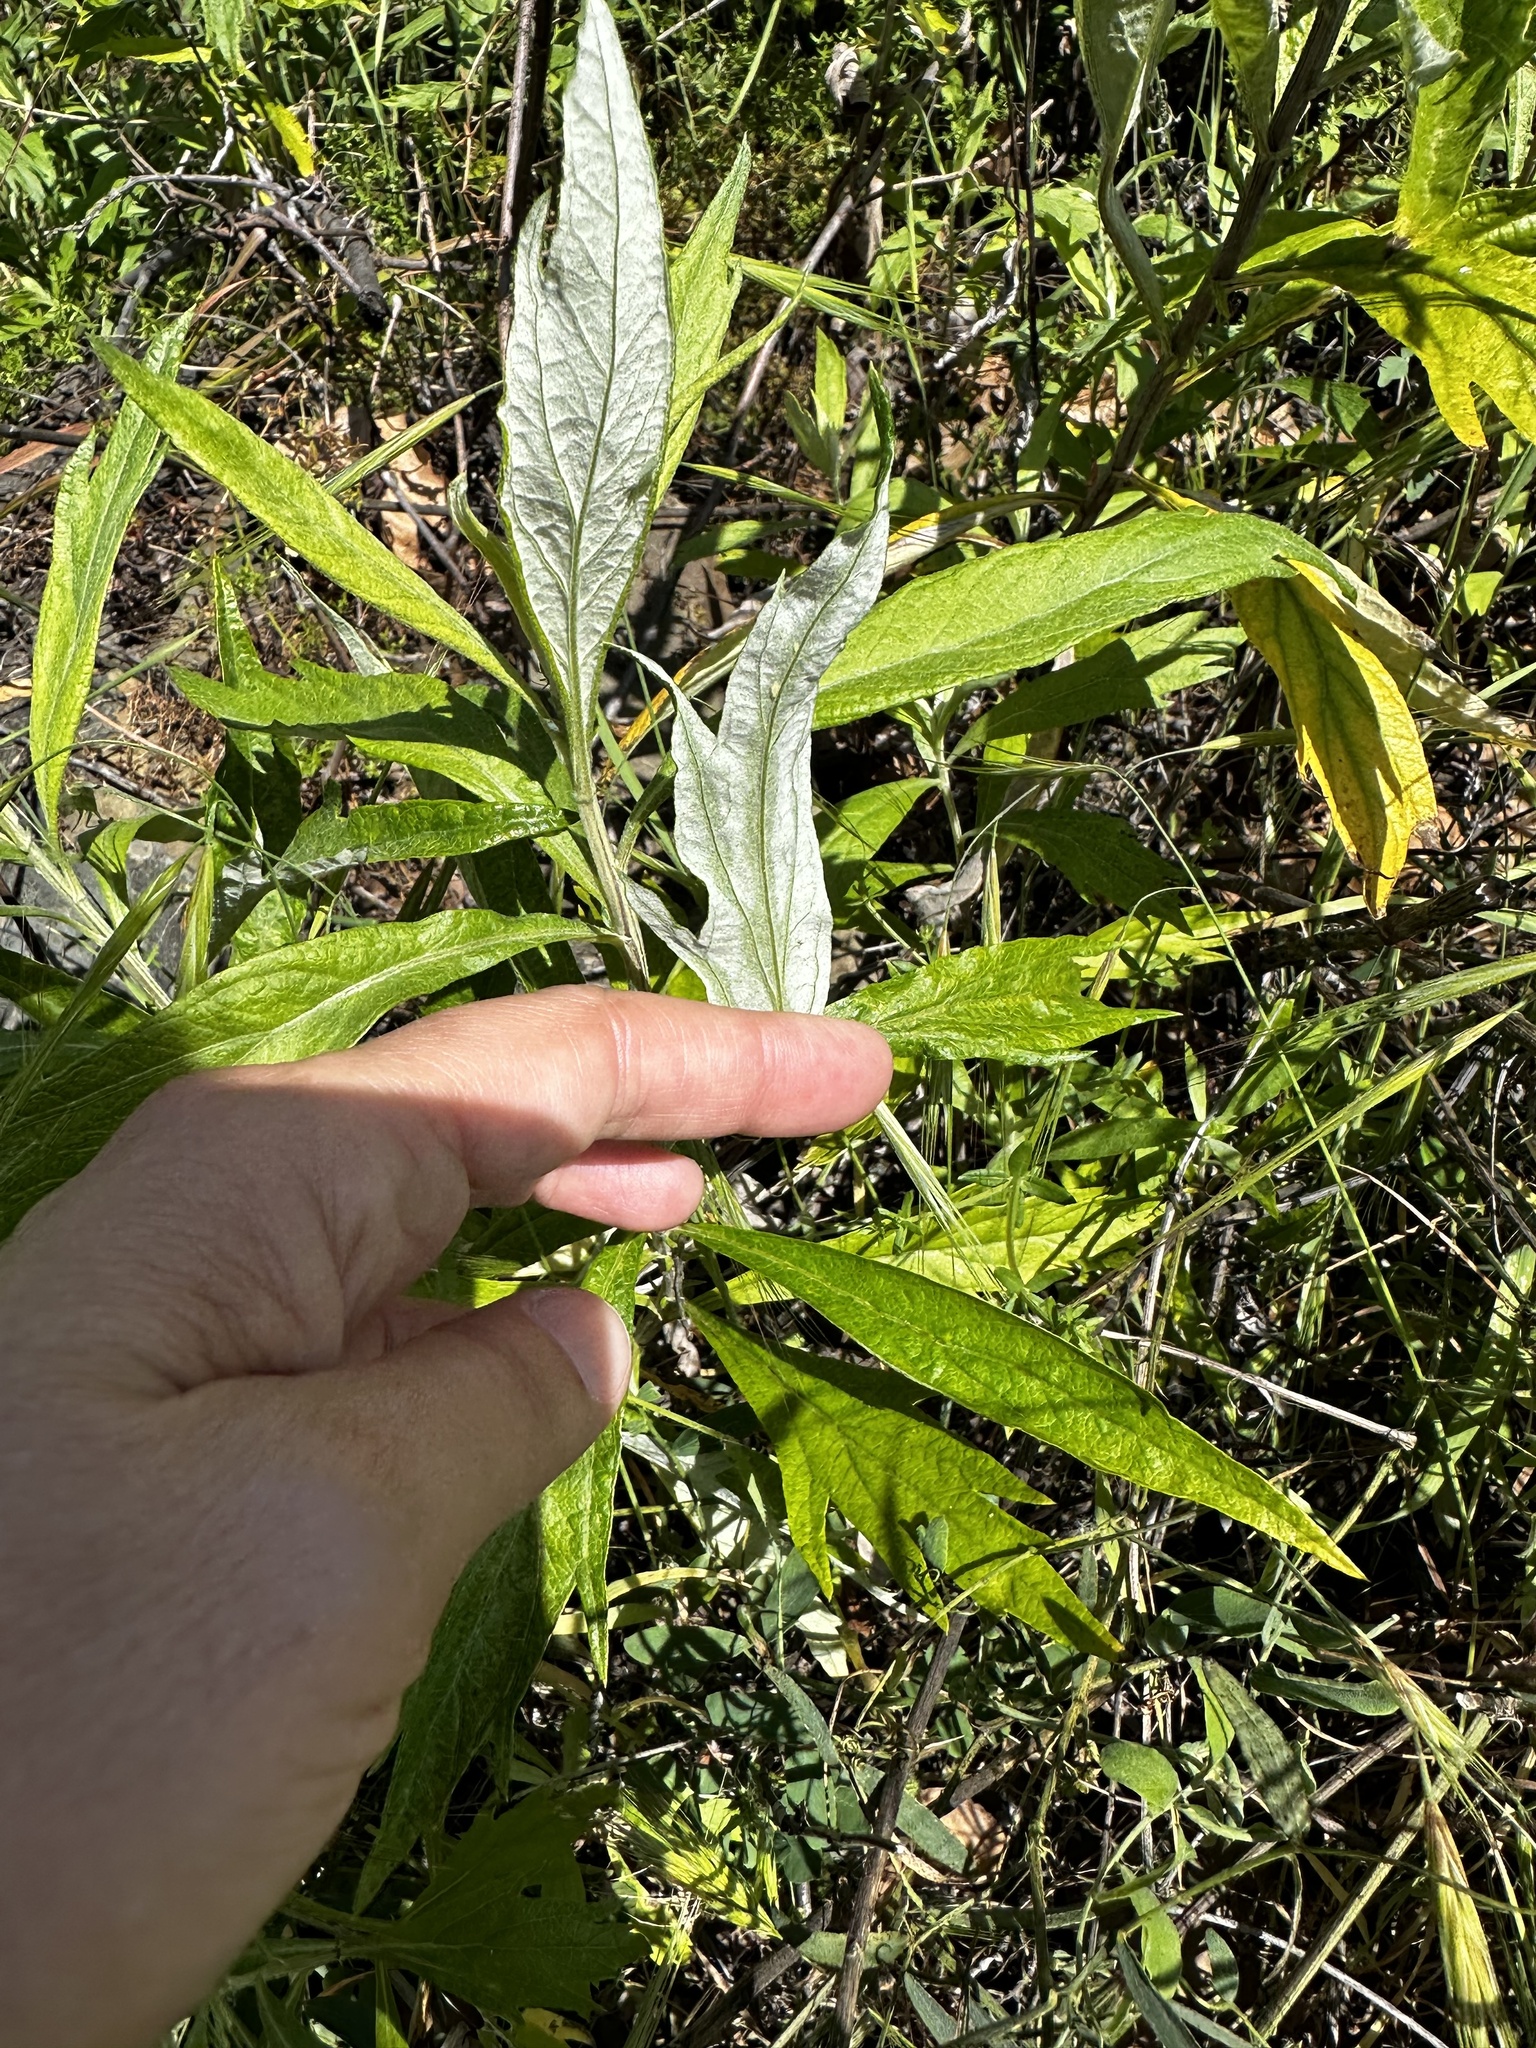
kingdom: Plantae
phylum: Tracheophyta
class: Magnoliopsida
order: Asterales
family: Asteraceae
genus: Artemisia
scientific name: Artemisia douglasiana
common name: Northwest mugwort
